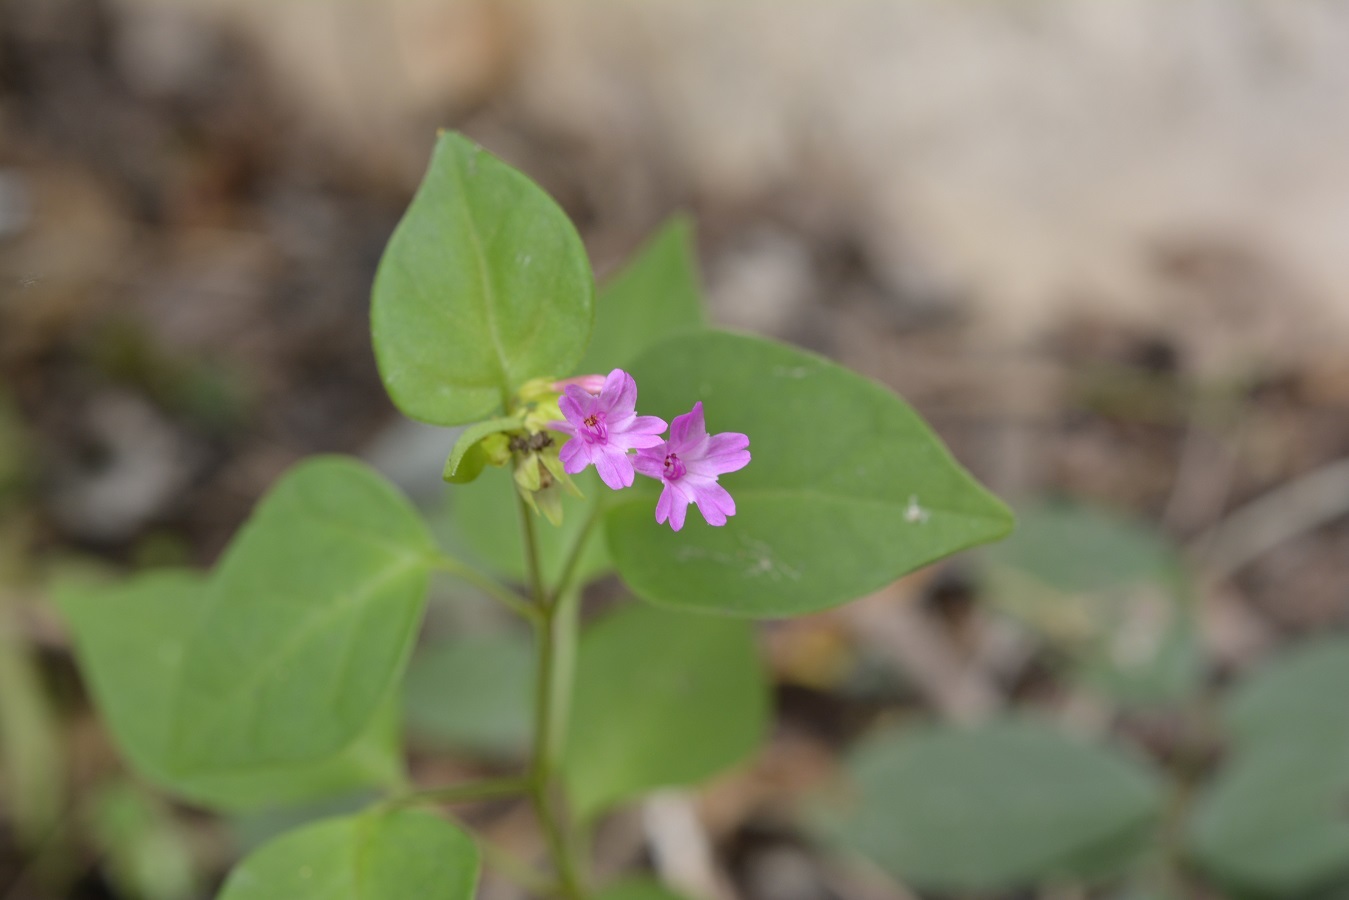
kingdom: Plantae
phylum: Tracheophyta
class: Magnoliopsida
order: Caryophyllales
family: Nyctaginaceae
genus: Mirabilis
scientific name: Mirabilis sanguinea
